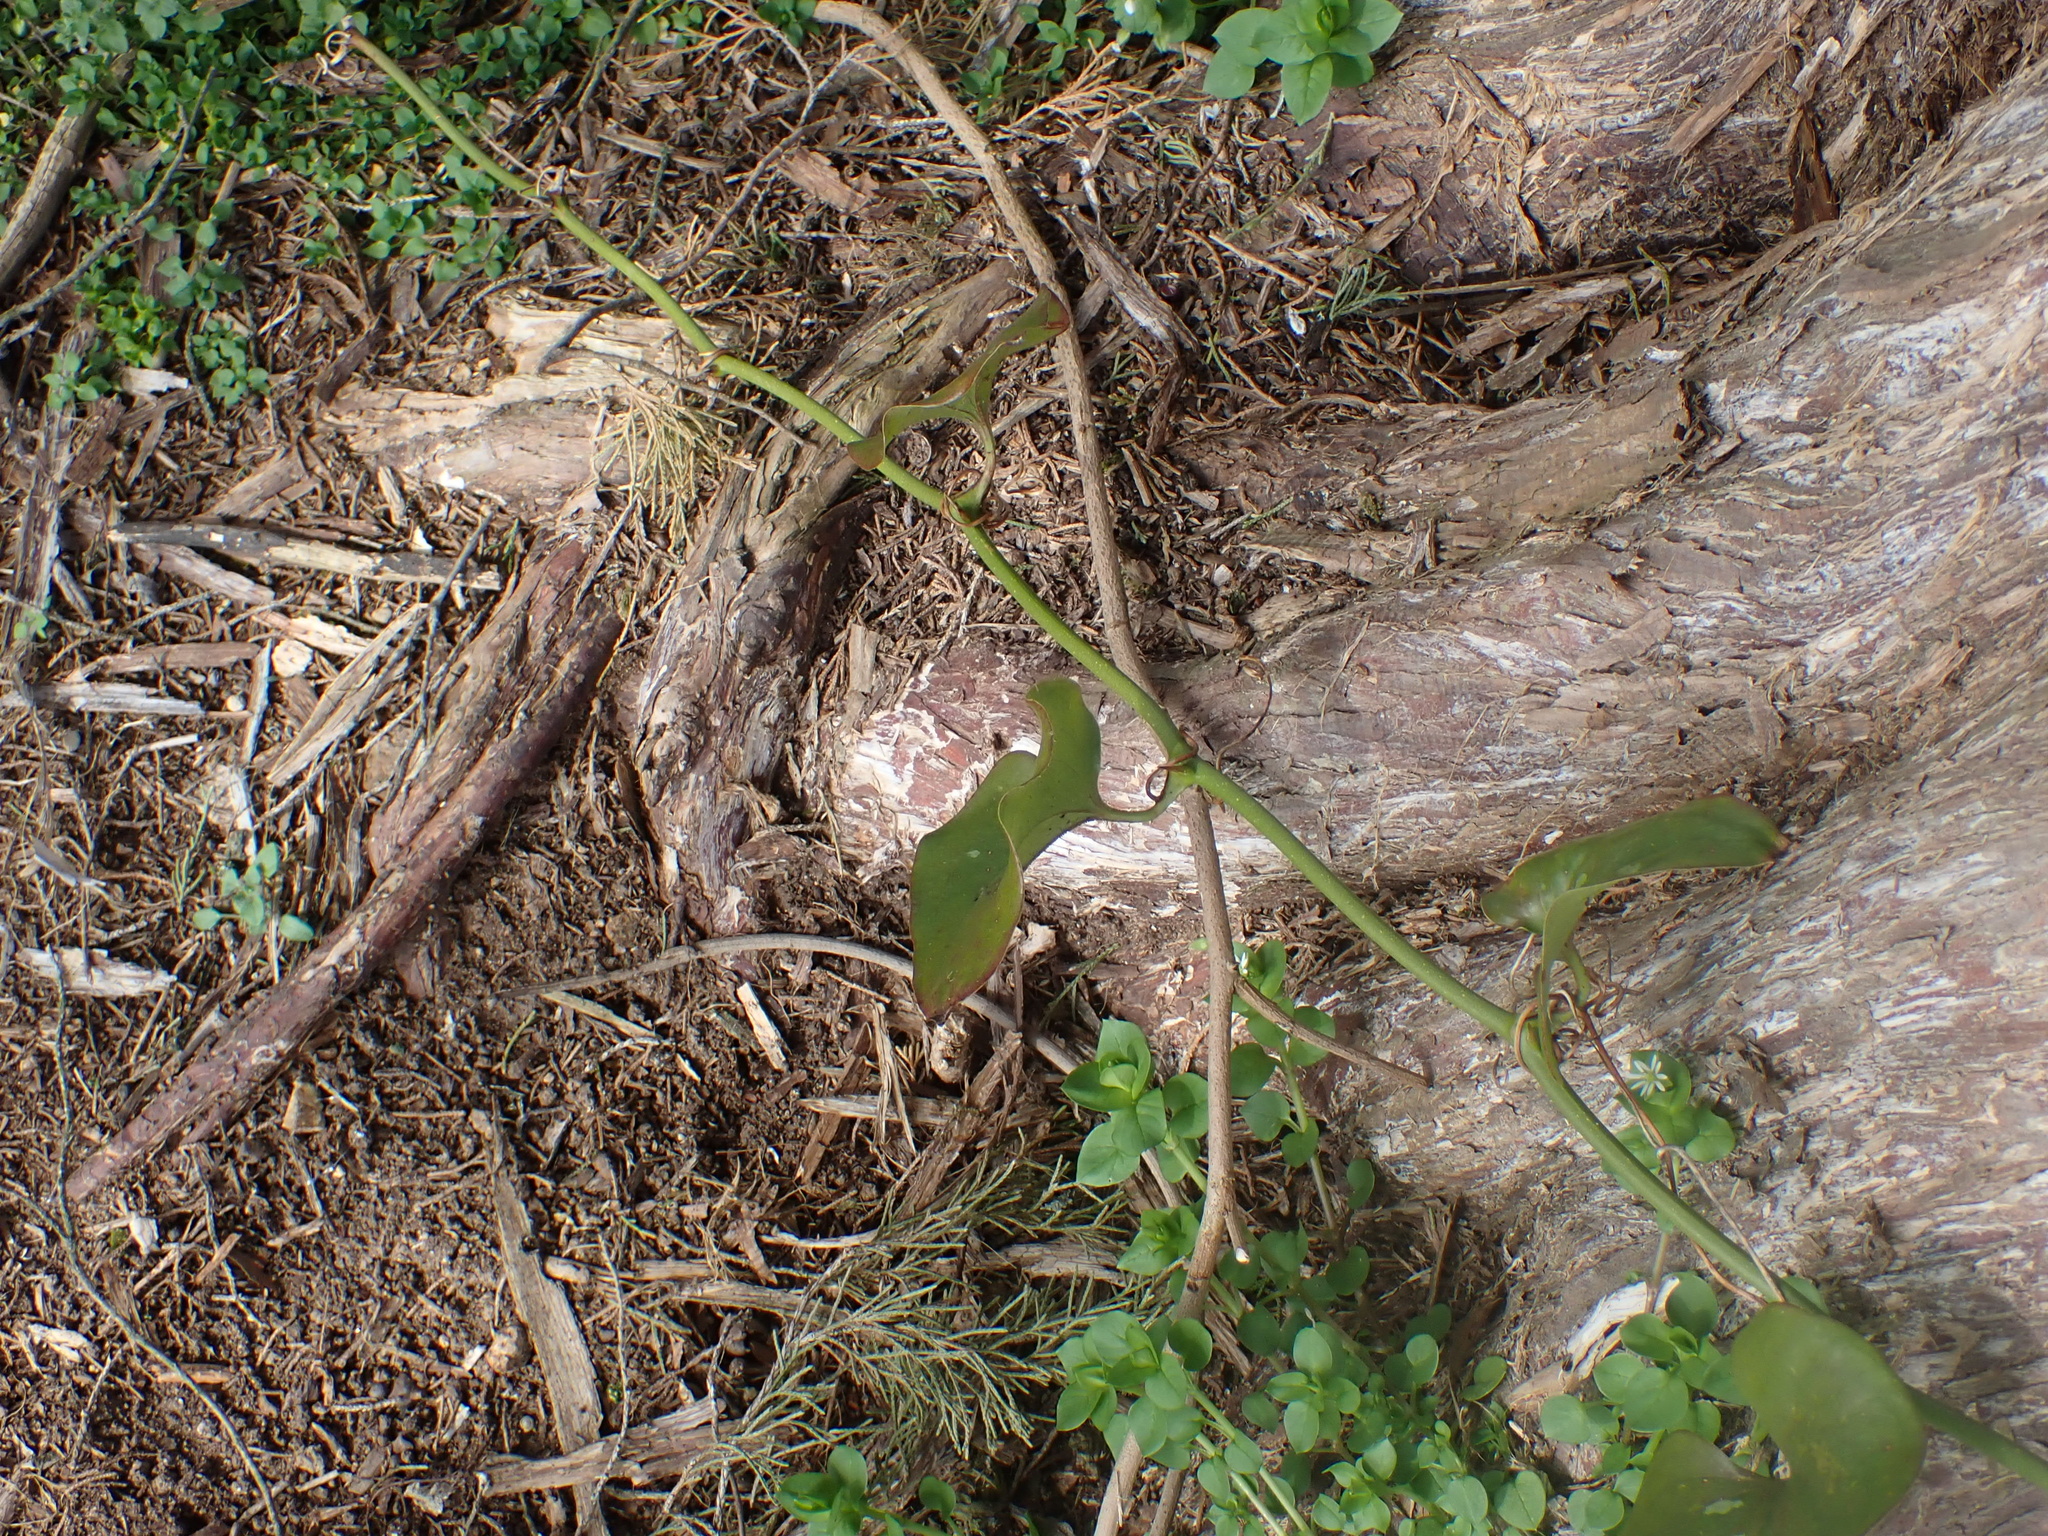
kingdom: Plantae
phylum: Tracheophyta
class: Liliopsida
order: Liliales
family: Smilacaceae
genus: Smilax
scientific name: Smilax bona-nox
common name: Catbrier
